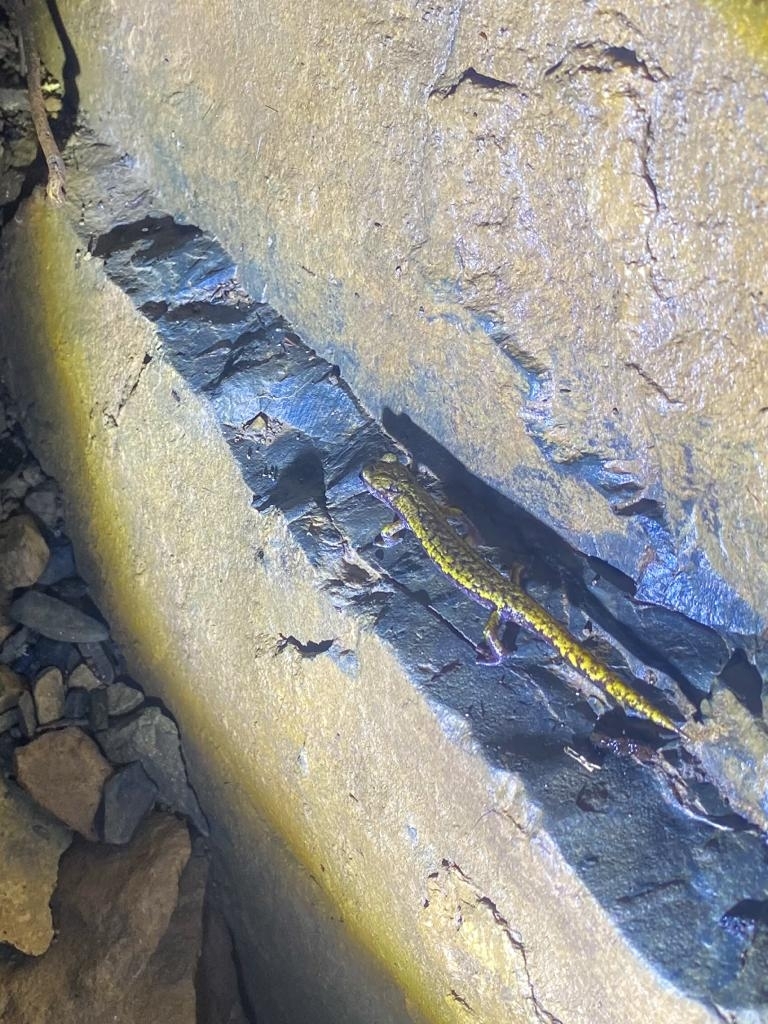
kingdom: Animalia
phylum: Chordata
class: Amphibia
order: Caudata
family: Plethodontidae
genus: Speleomantes
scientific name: Speleomantes strinatii
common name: French cave salamander
